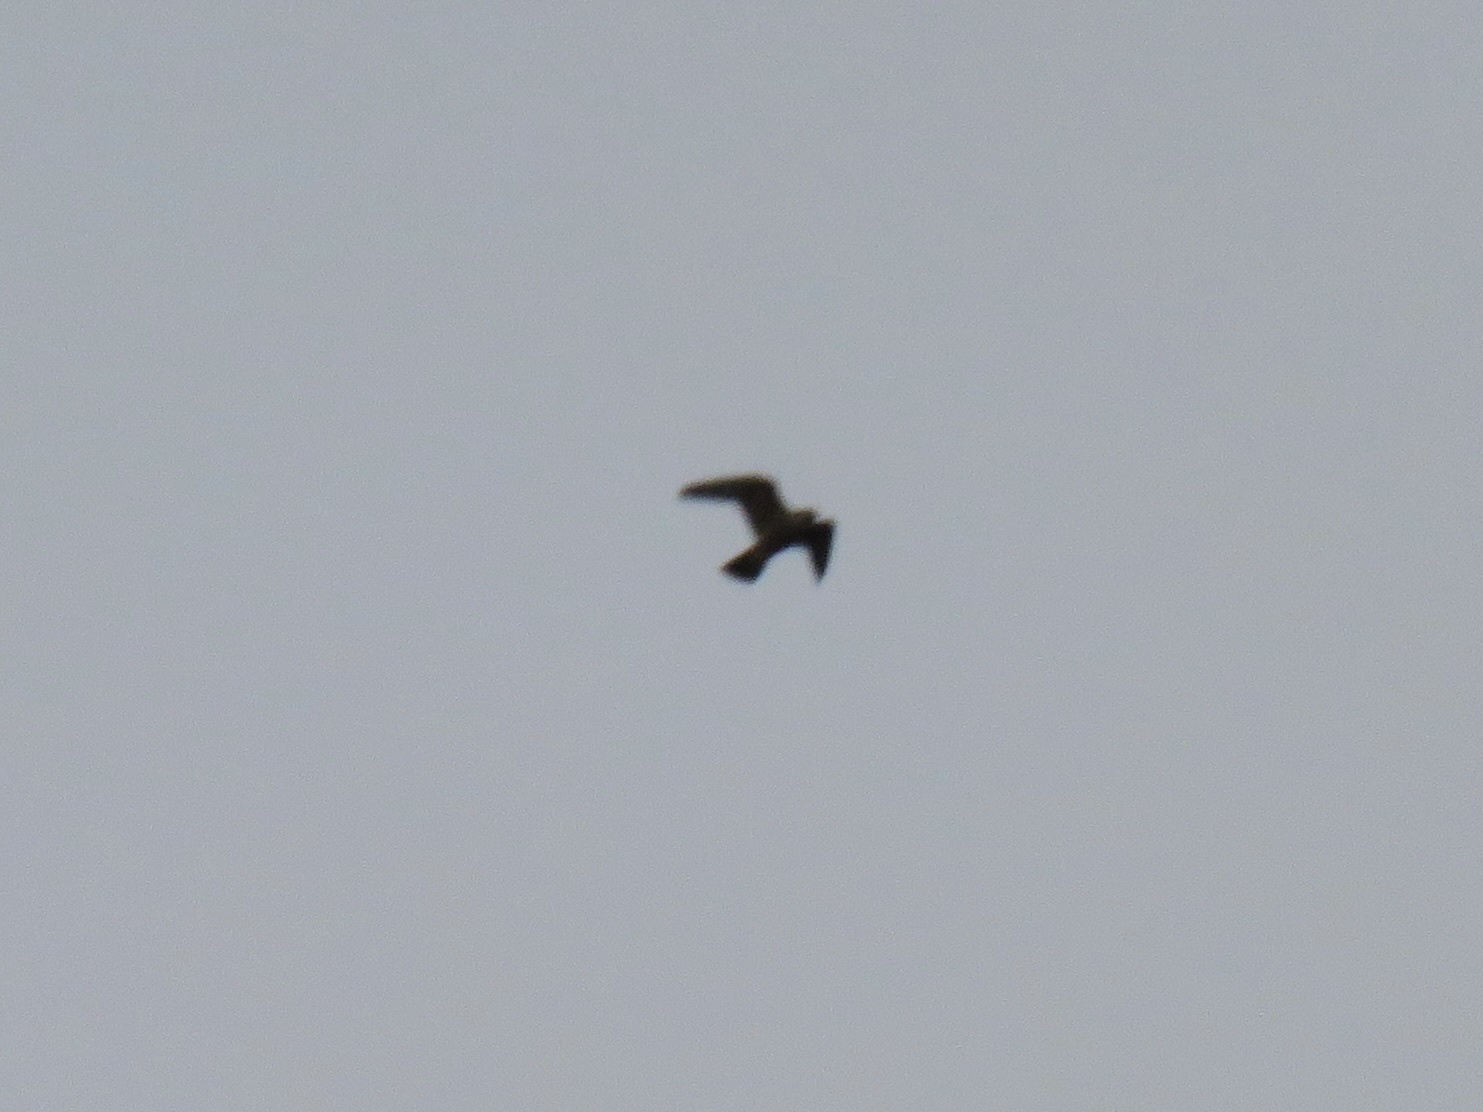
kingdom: Animalia
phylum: Chordata
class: Aves
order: Falconiformes
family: Falconidae
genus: Falco
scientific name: Falco peregrinus
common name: Peregrine falcon
